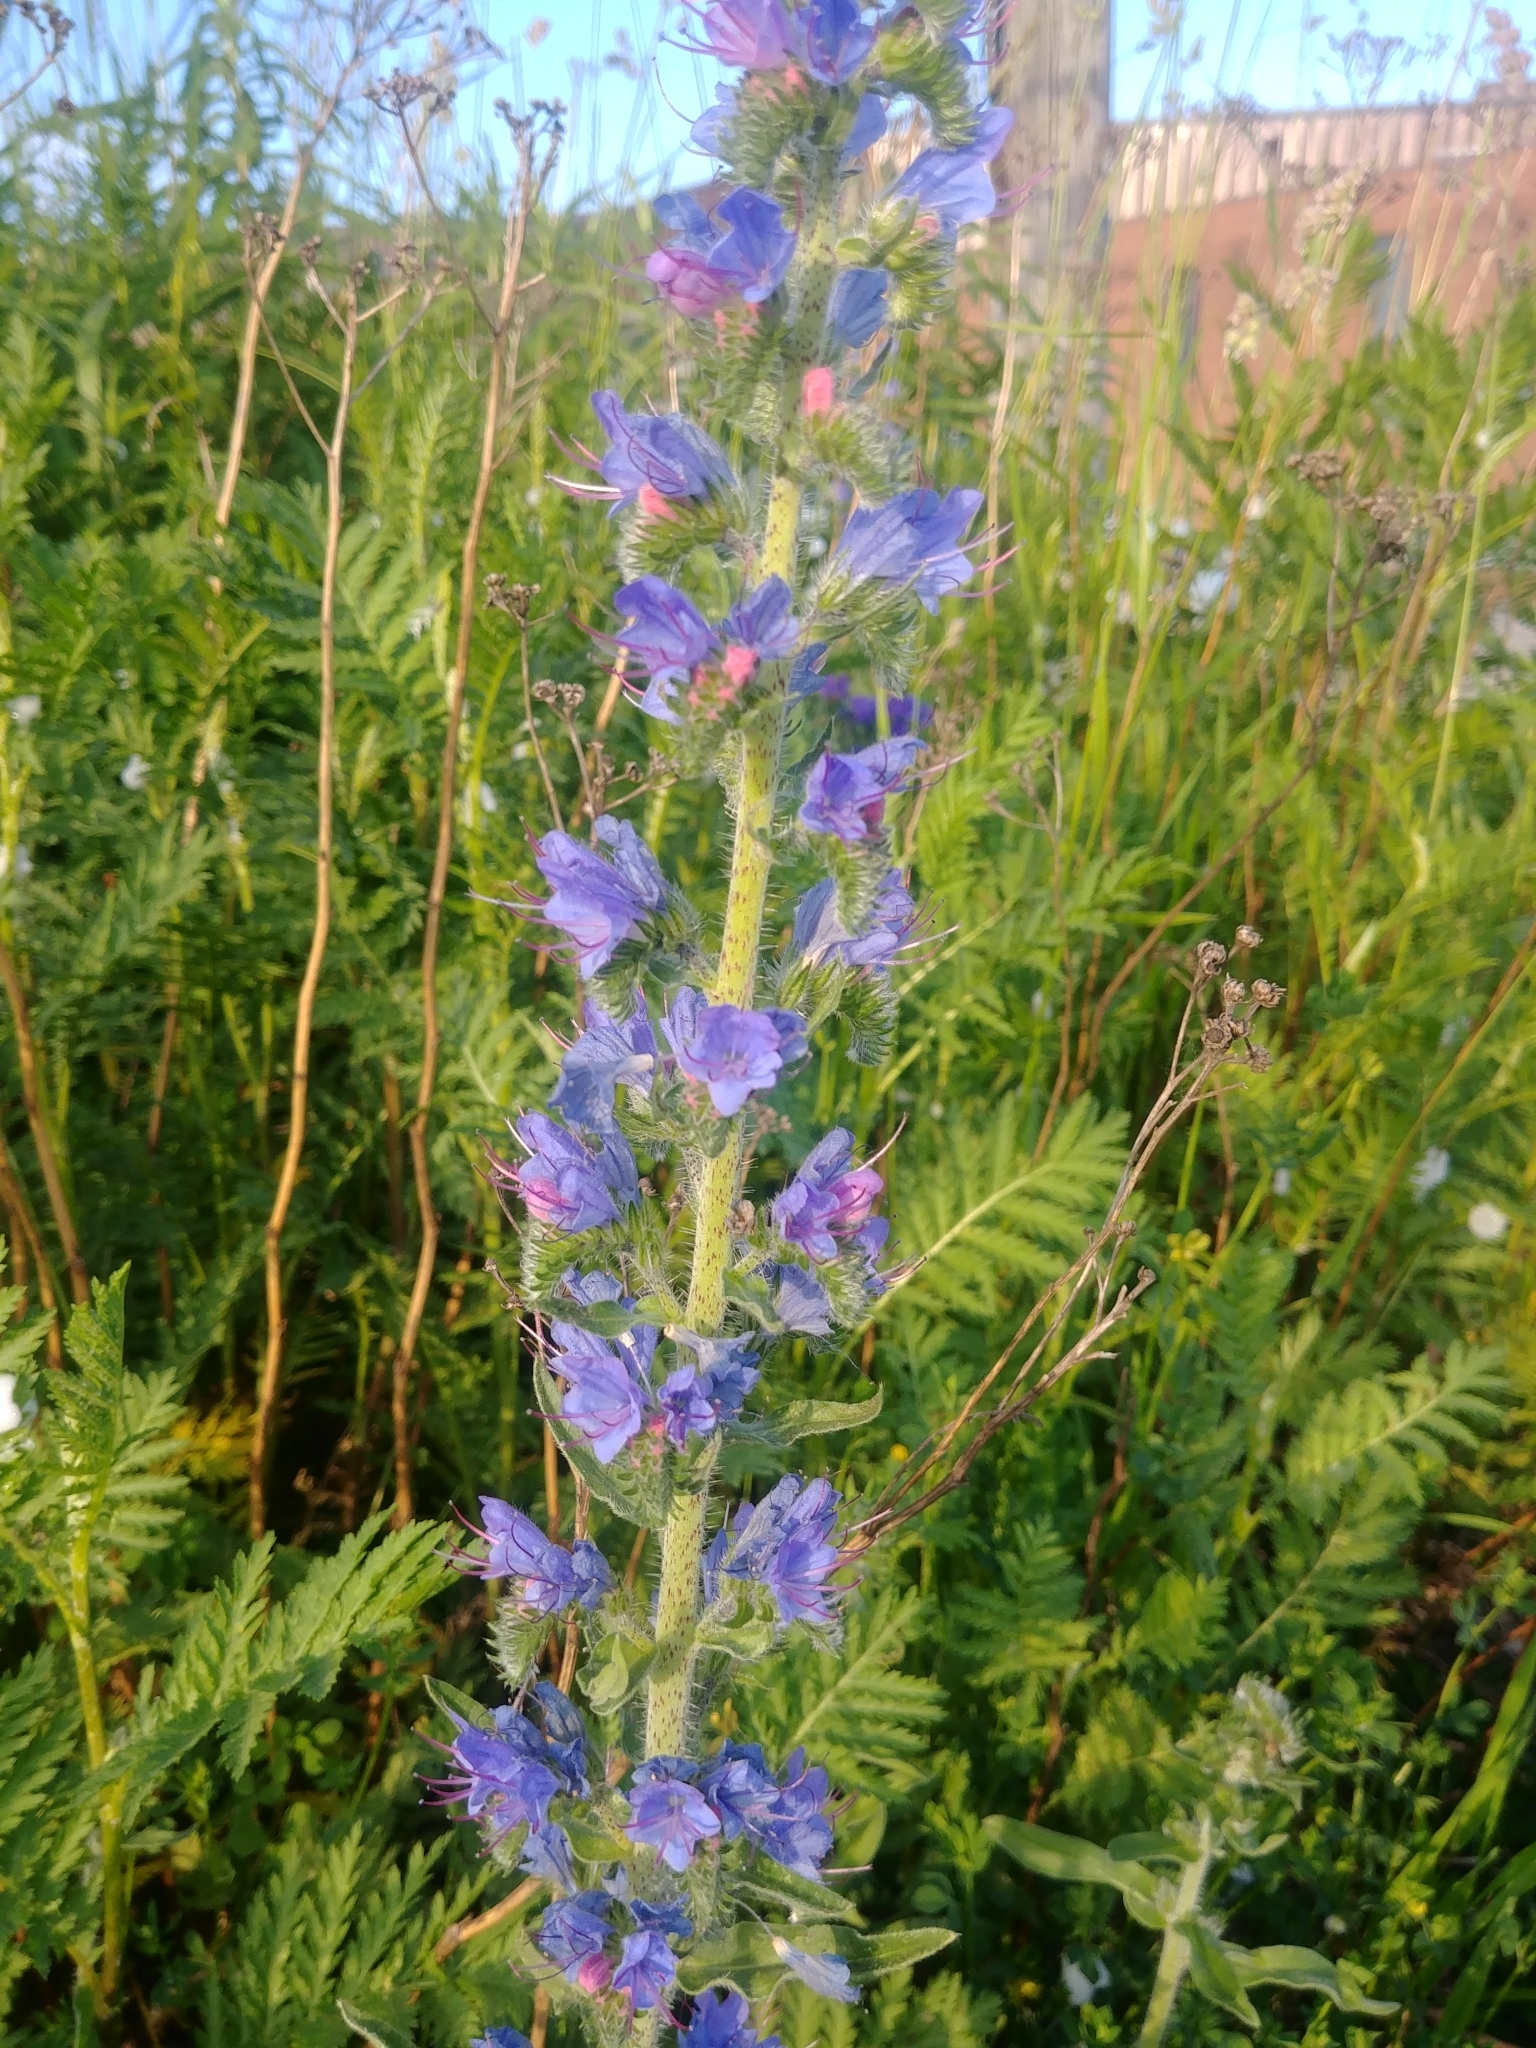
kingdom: Plantae
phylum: Tracheophyta
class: Magnoliopsida
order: Boraginales
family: Boraginaceae
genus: Echium
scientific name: Echium vulgare
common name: Common viper's bugloss
